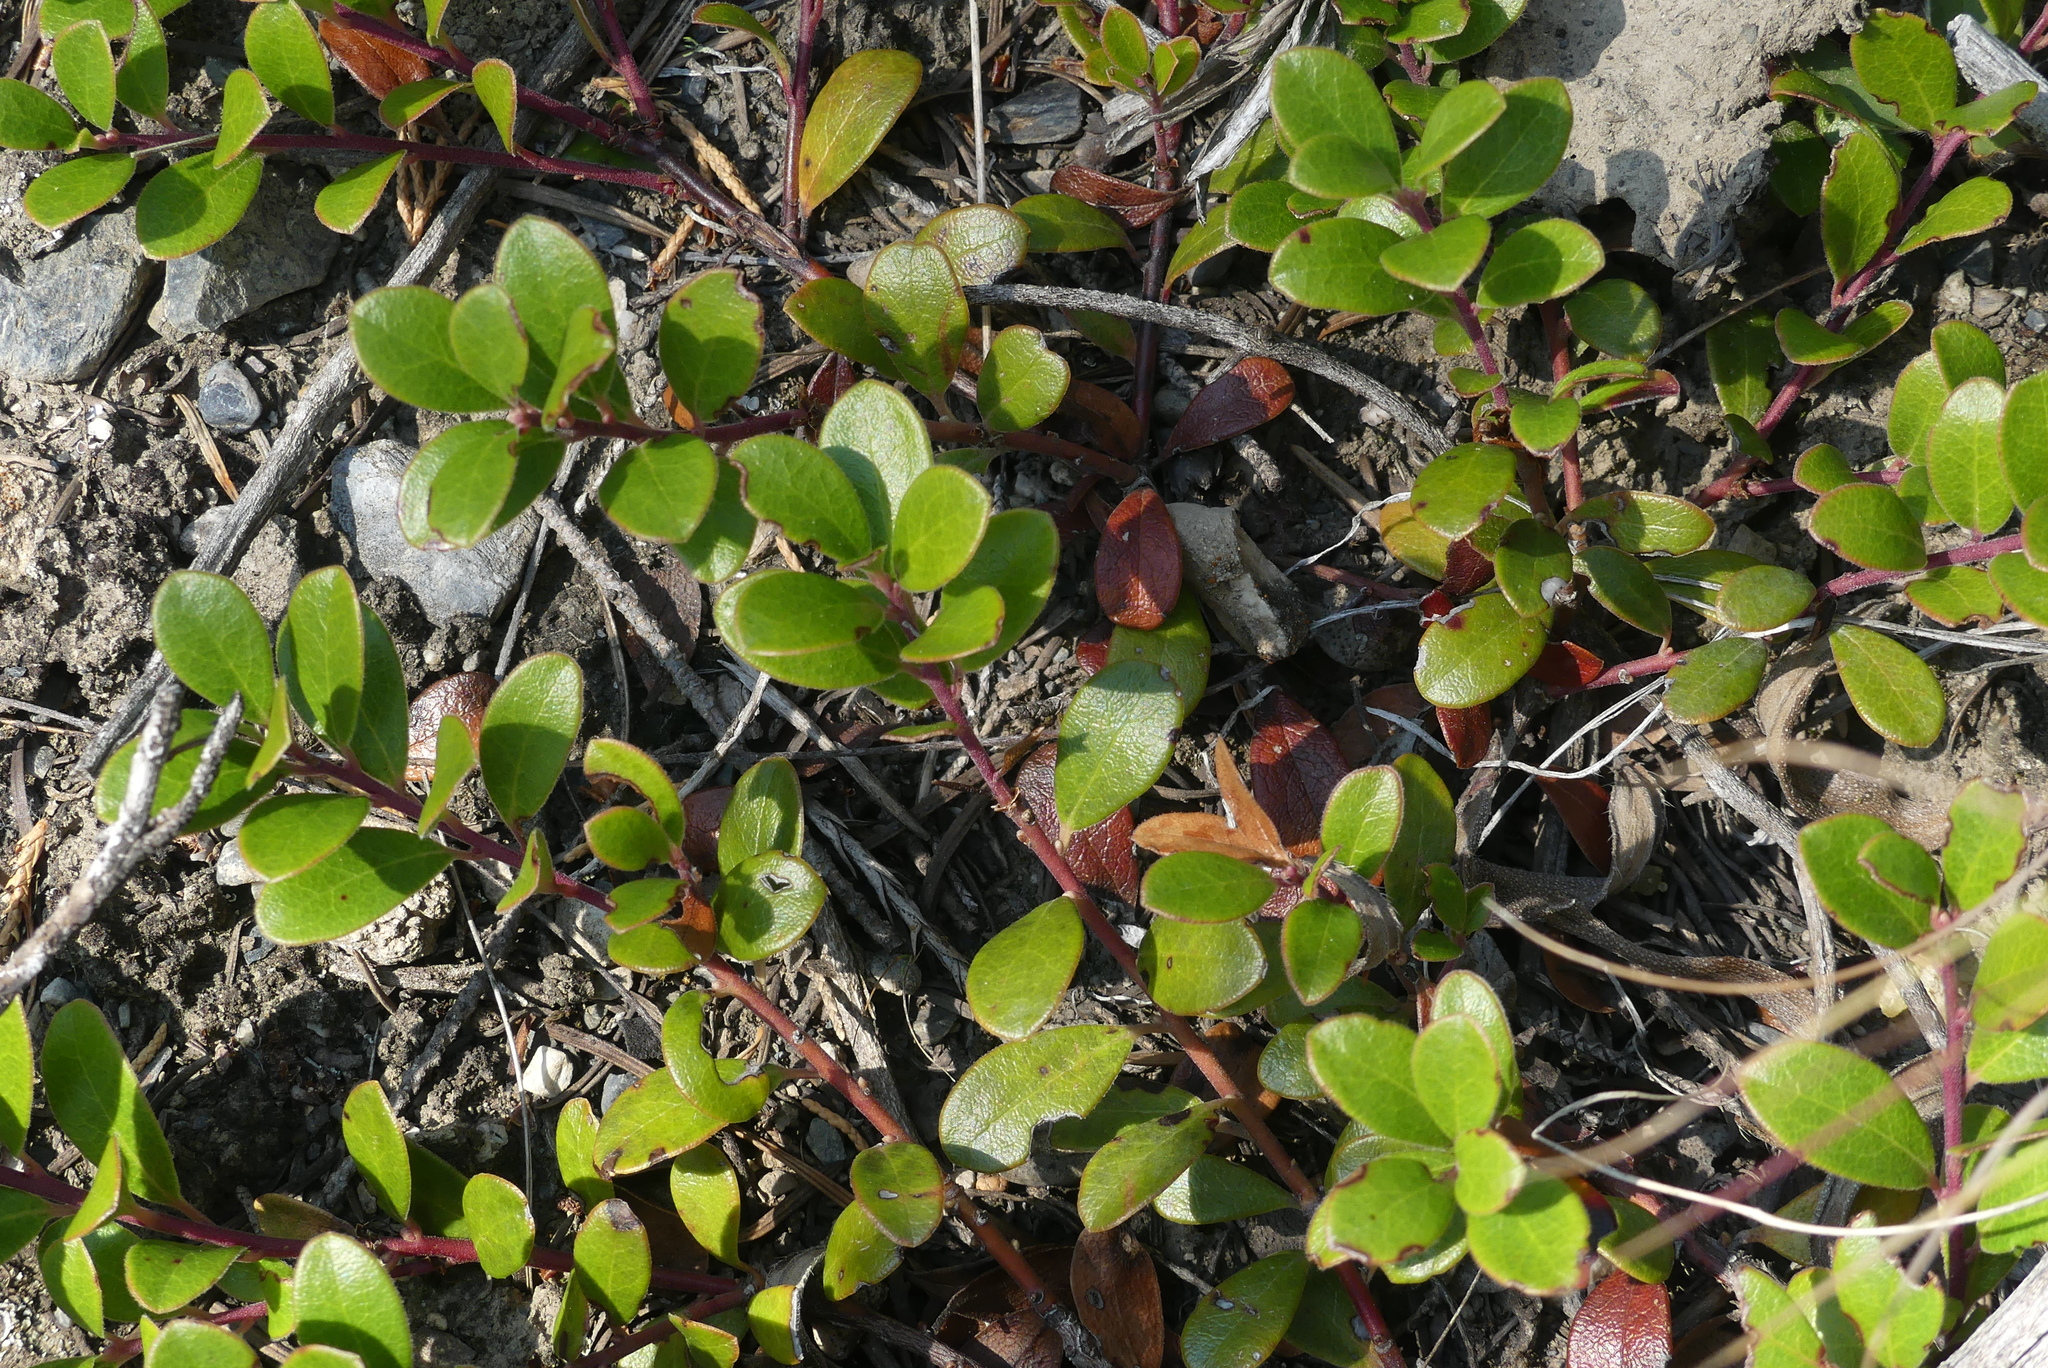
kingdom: Plantae
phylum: Tracheophyta
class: Magnoliopsida
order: Ericales
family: Ericaceae
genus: Arctostaphylos
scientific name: Arctostaphylos uva-ursi
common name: Bearberry
